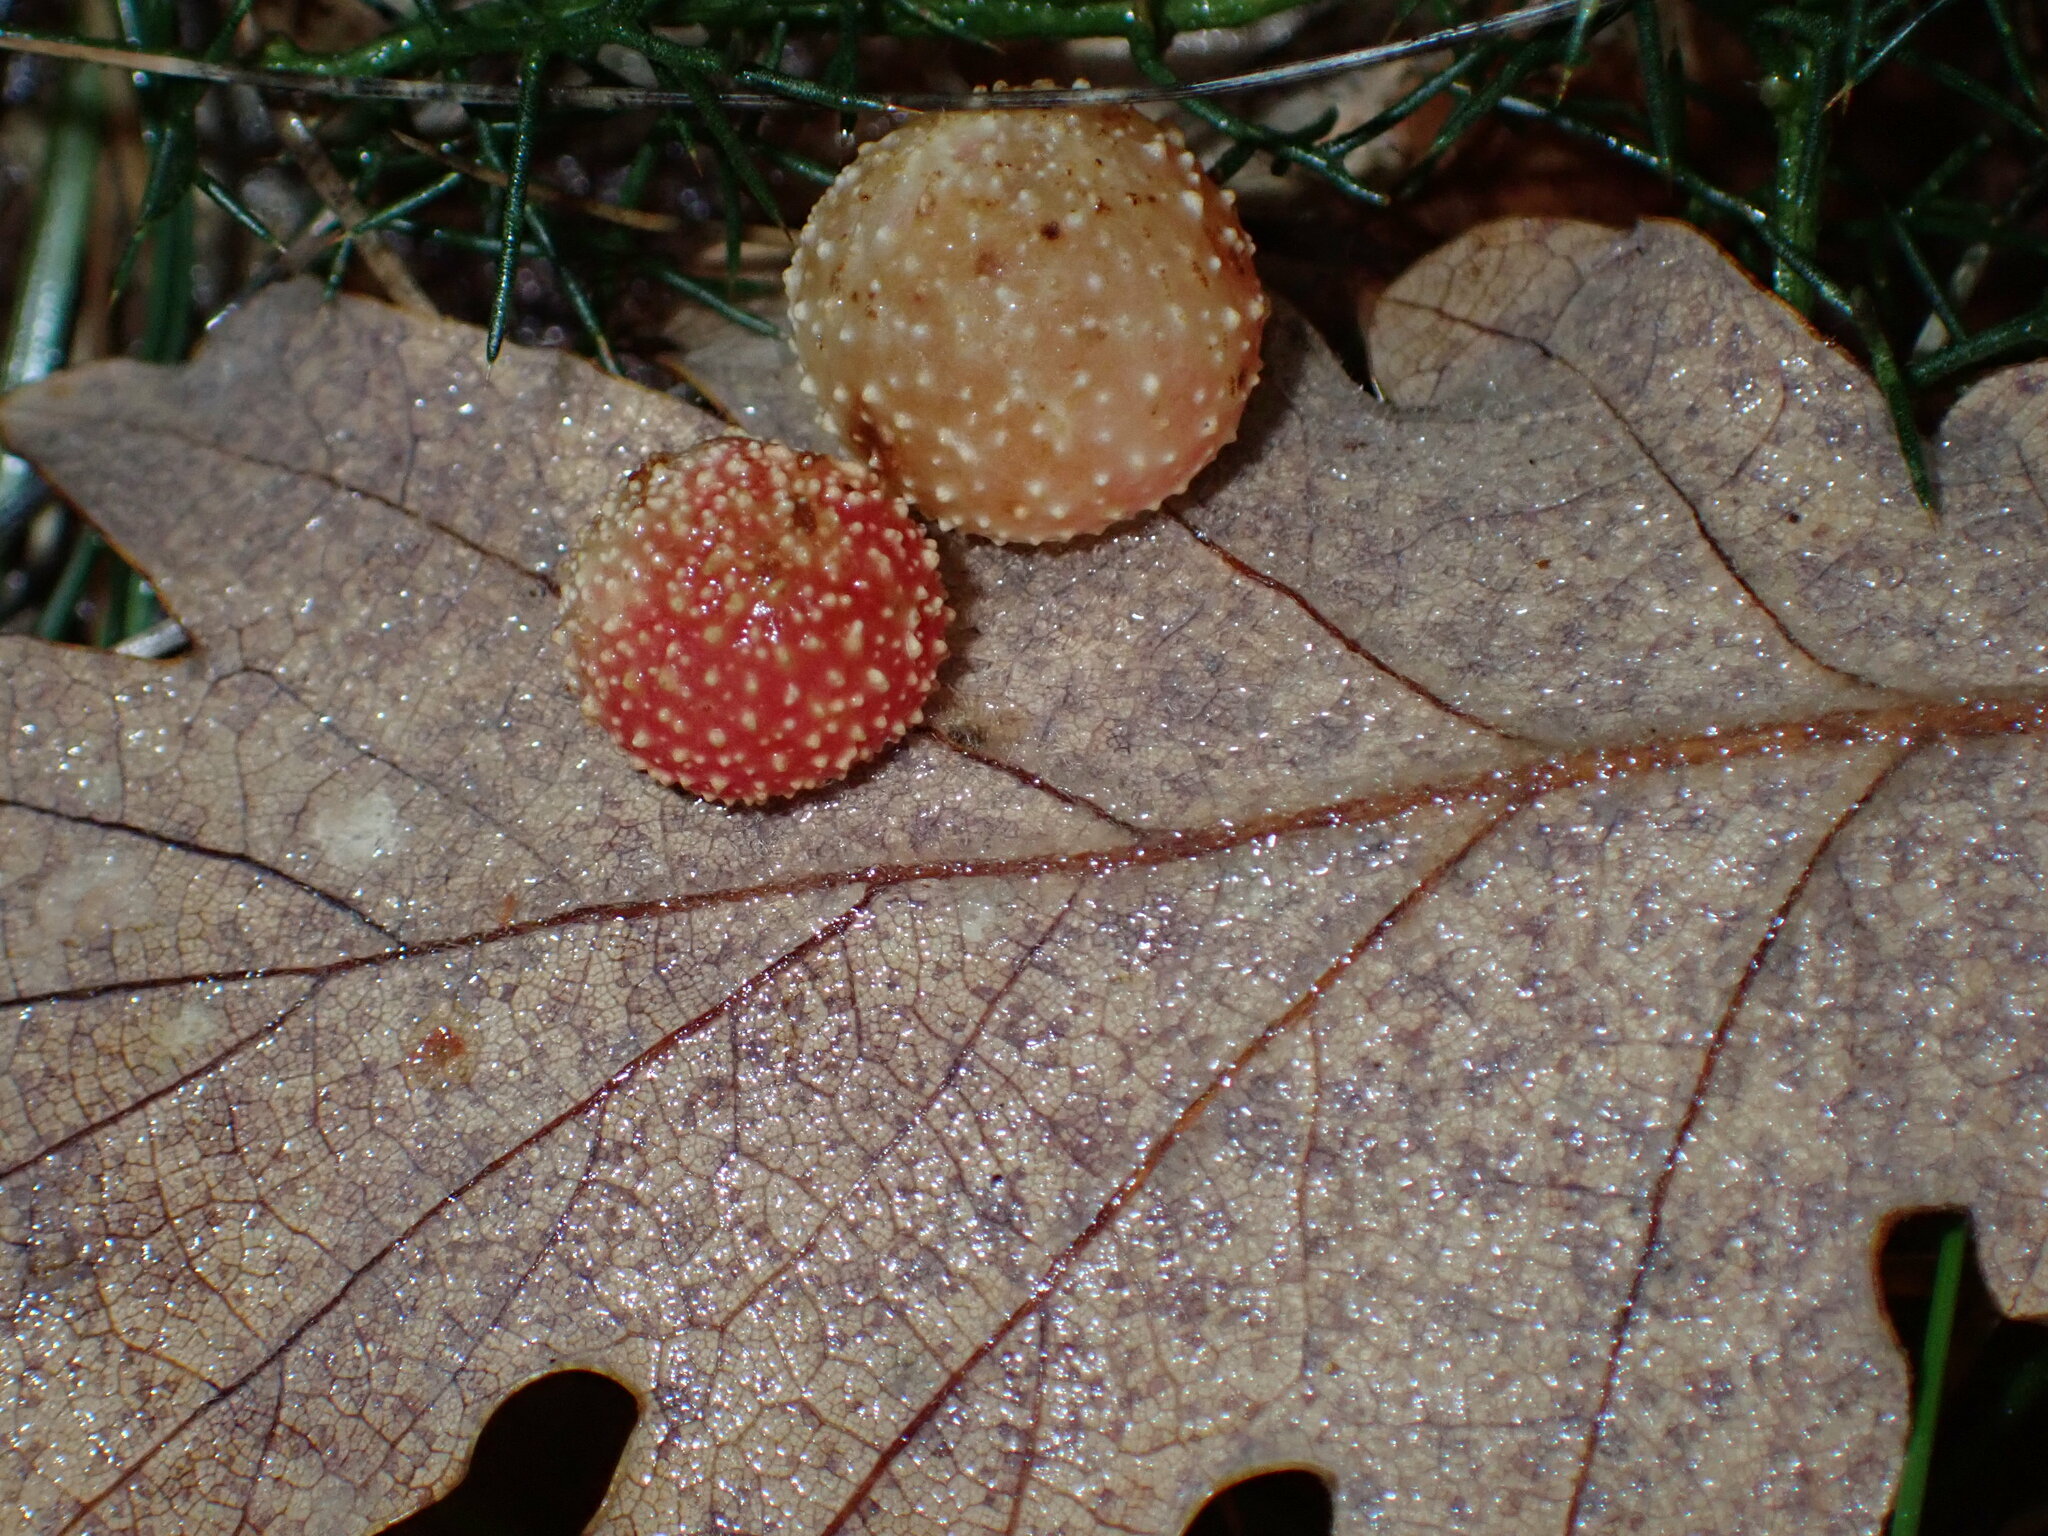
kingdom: Animalia
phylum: Arthropoda
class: Insecta
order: Hymenoptera
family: Cynipidae
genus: Cynips
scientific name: Cynips quercusfolii
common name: Cherry gall
